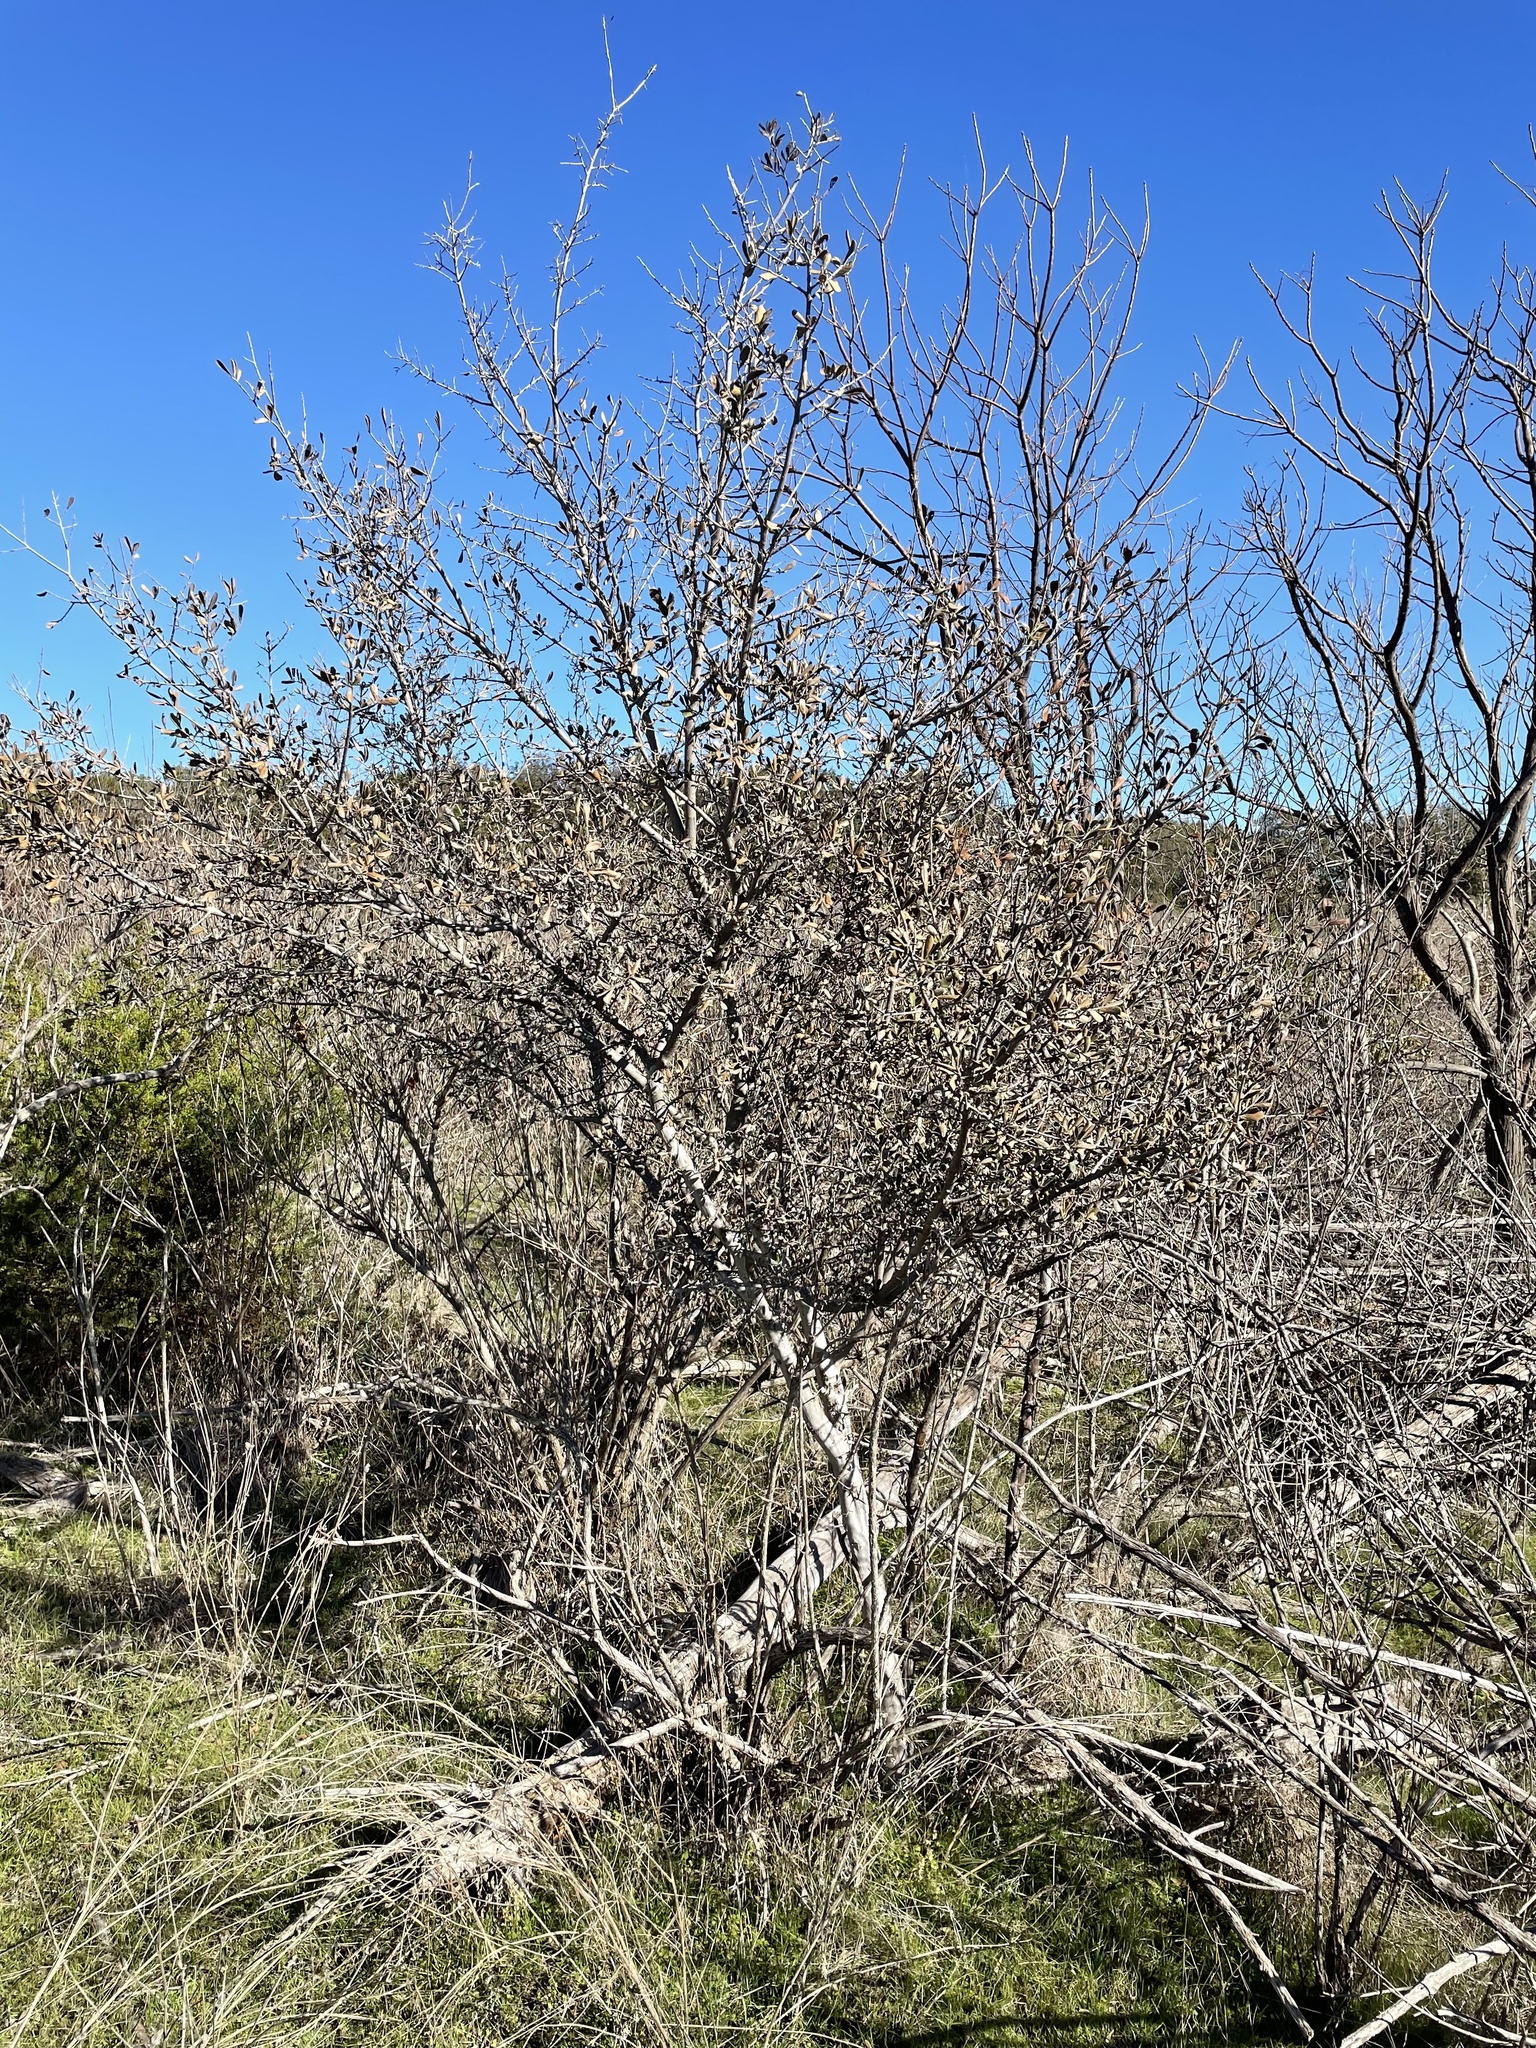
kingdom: Plantae
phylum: Tracheophyta
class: Magnoliopsida
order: Ericales
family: Ebenaceae
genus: Diospyros
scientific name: Diospyros texana
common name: Texas persimmon
